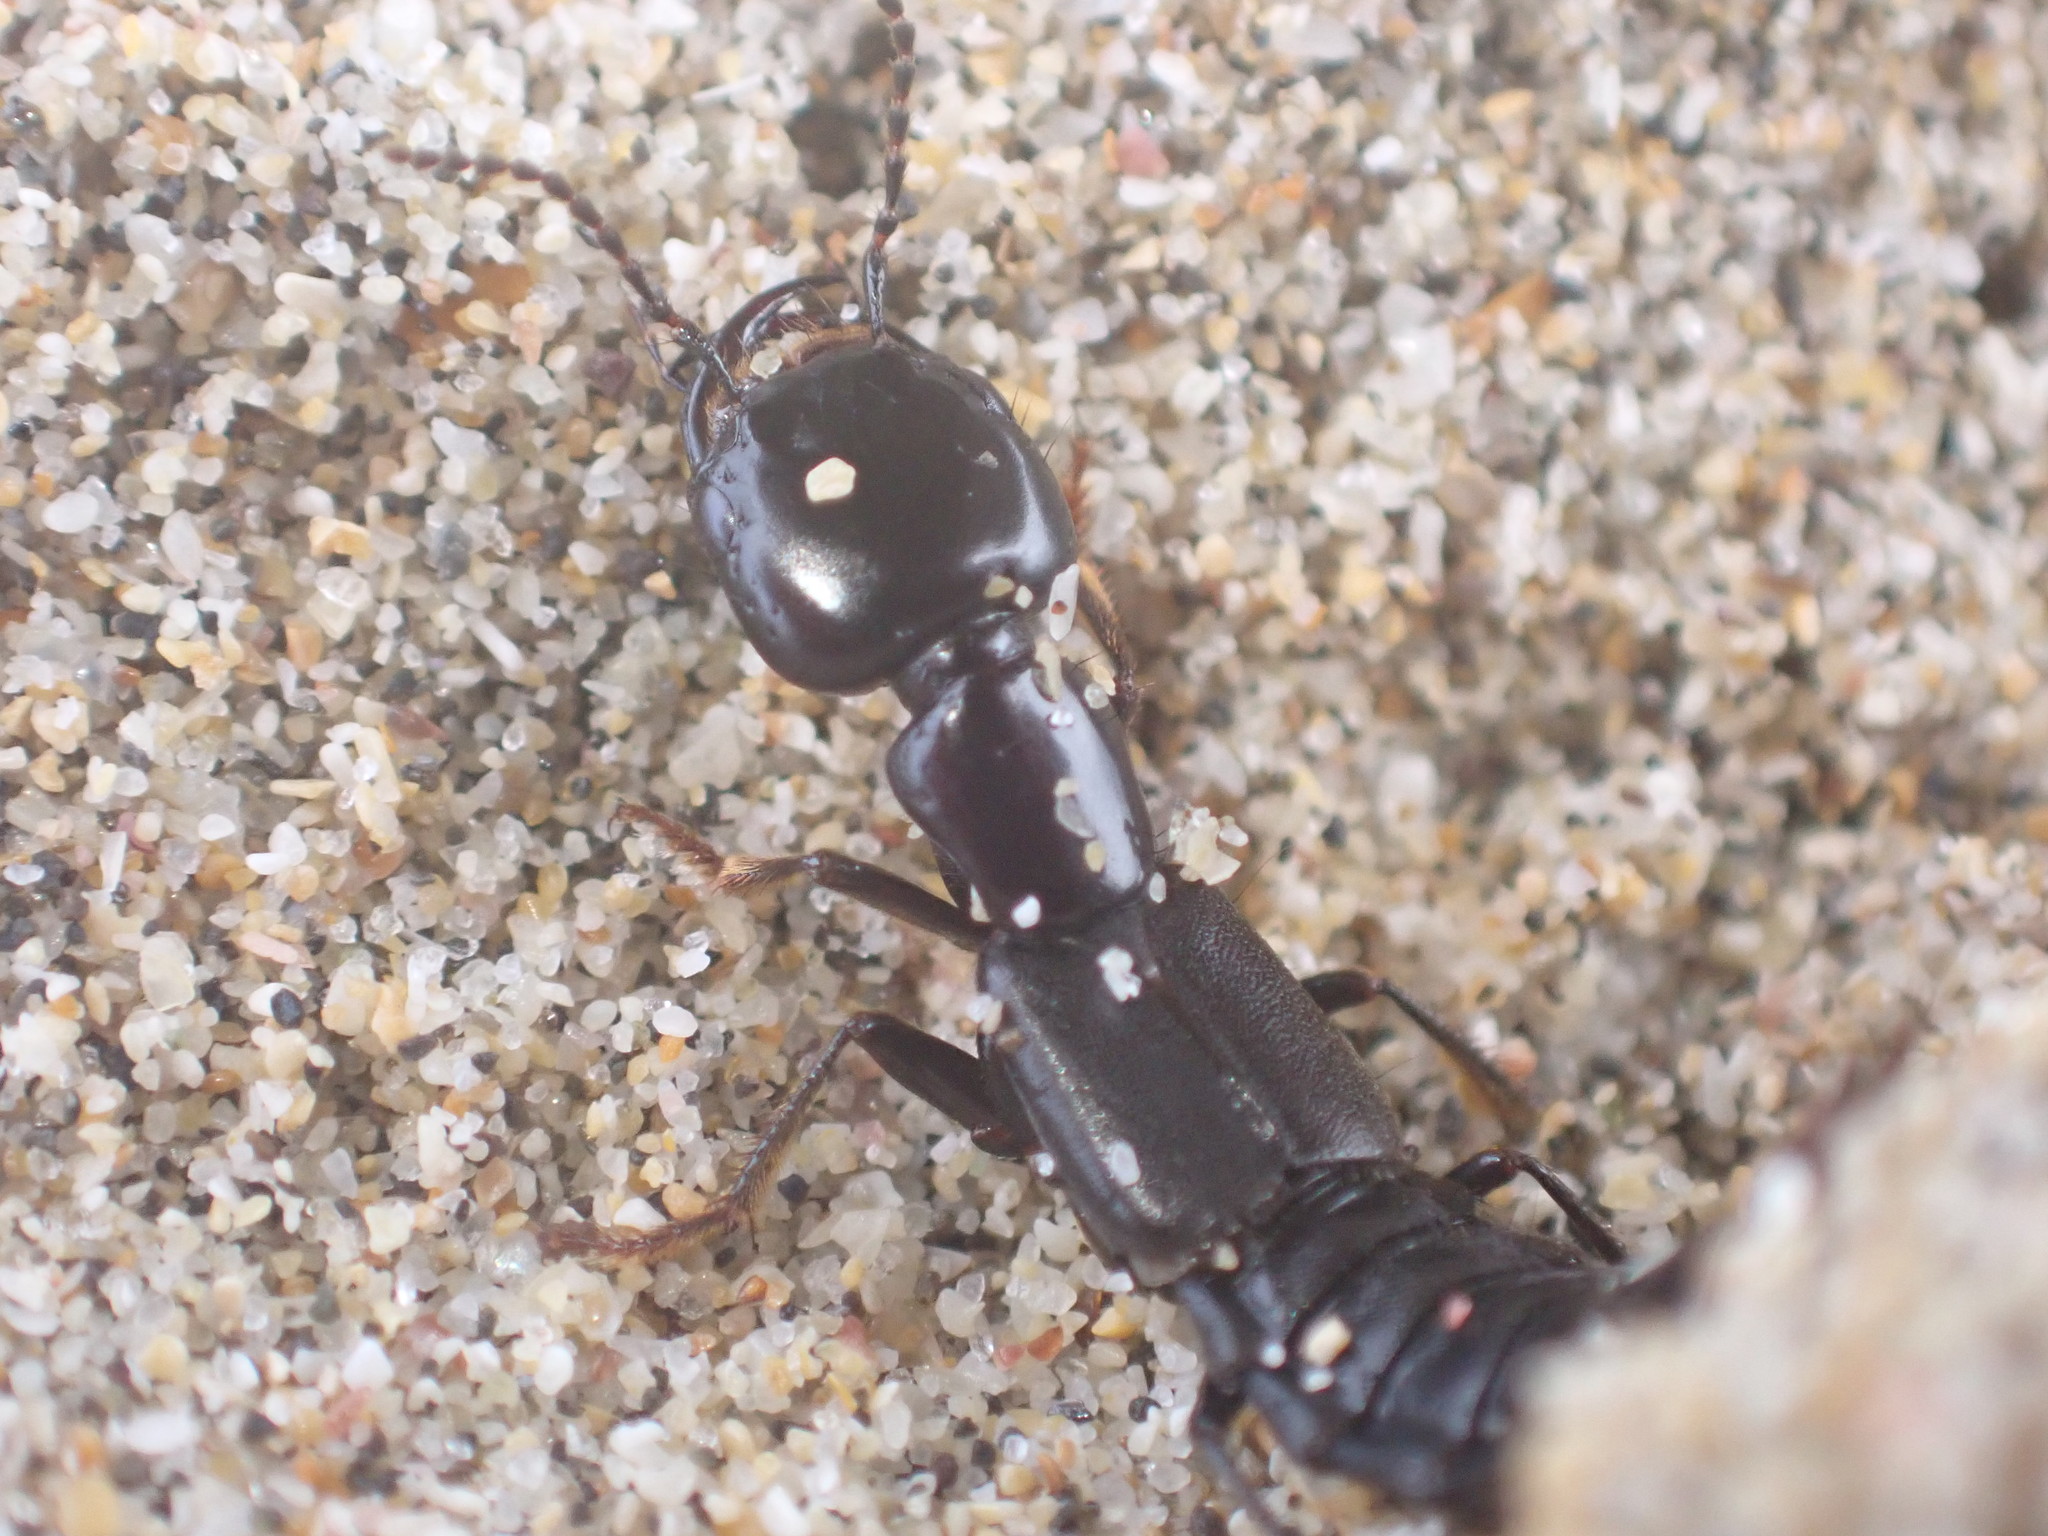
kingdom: Animalia
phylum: Arthropoda
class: Insecta
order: Coleoptera
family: Staphylinidae
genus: Cafius
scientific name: Cafius quadriimpressus
